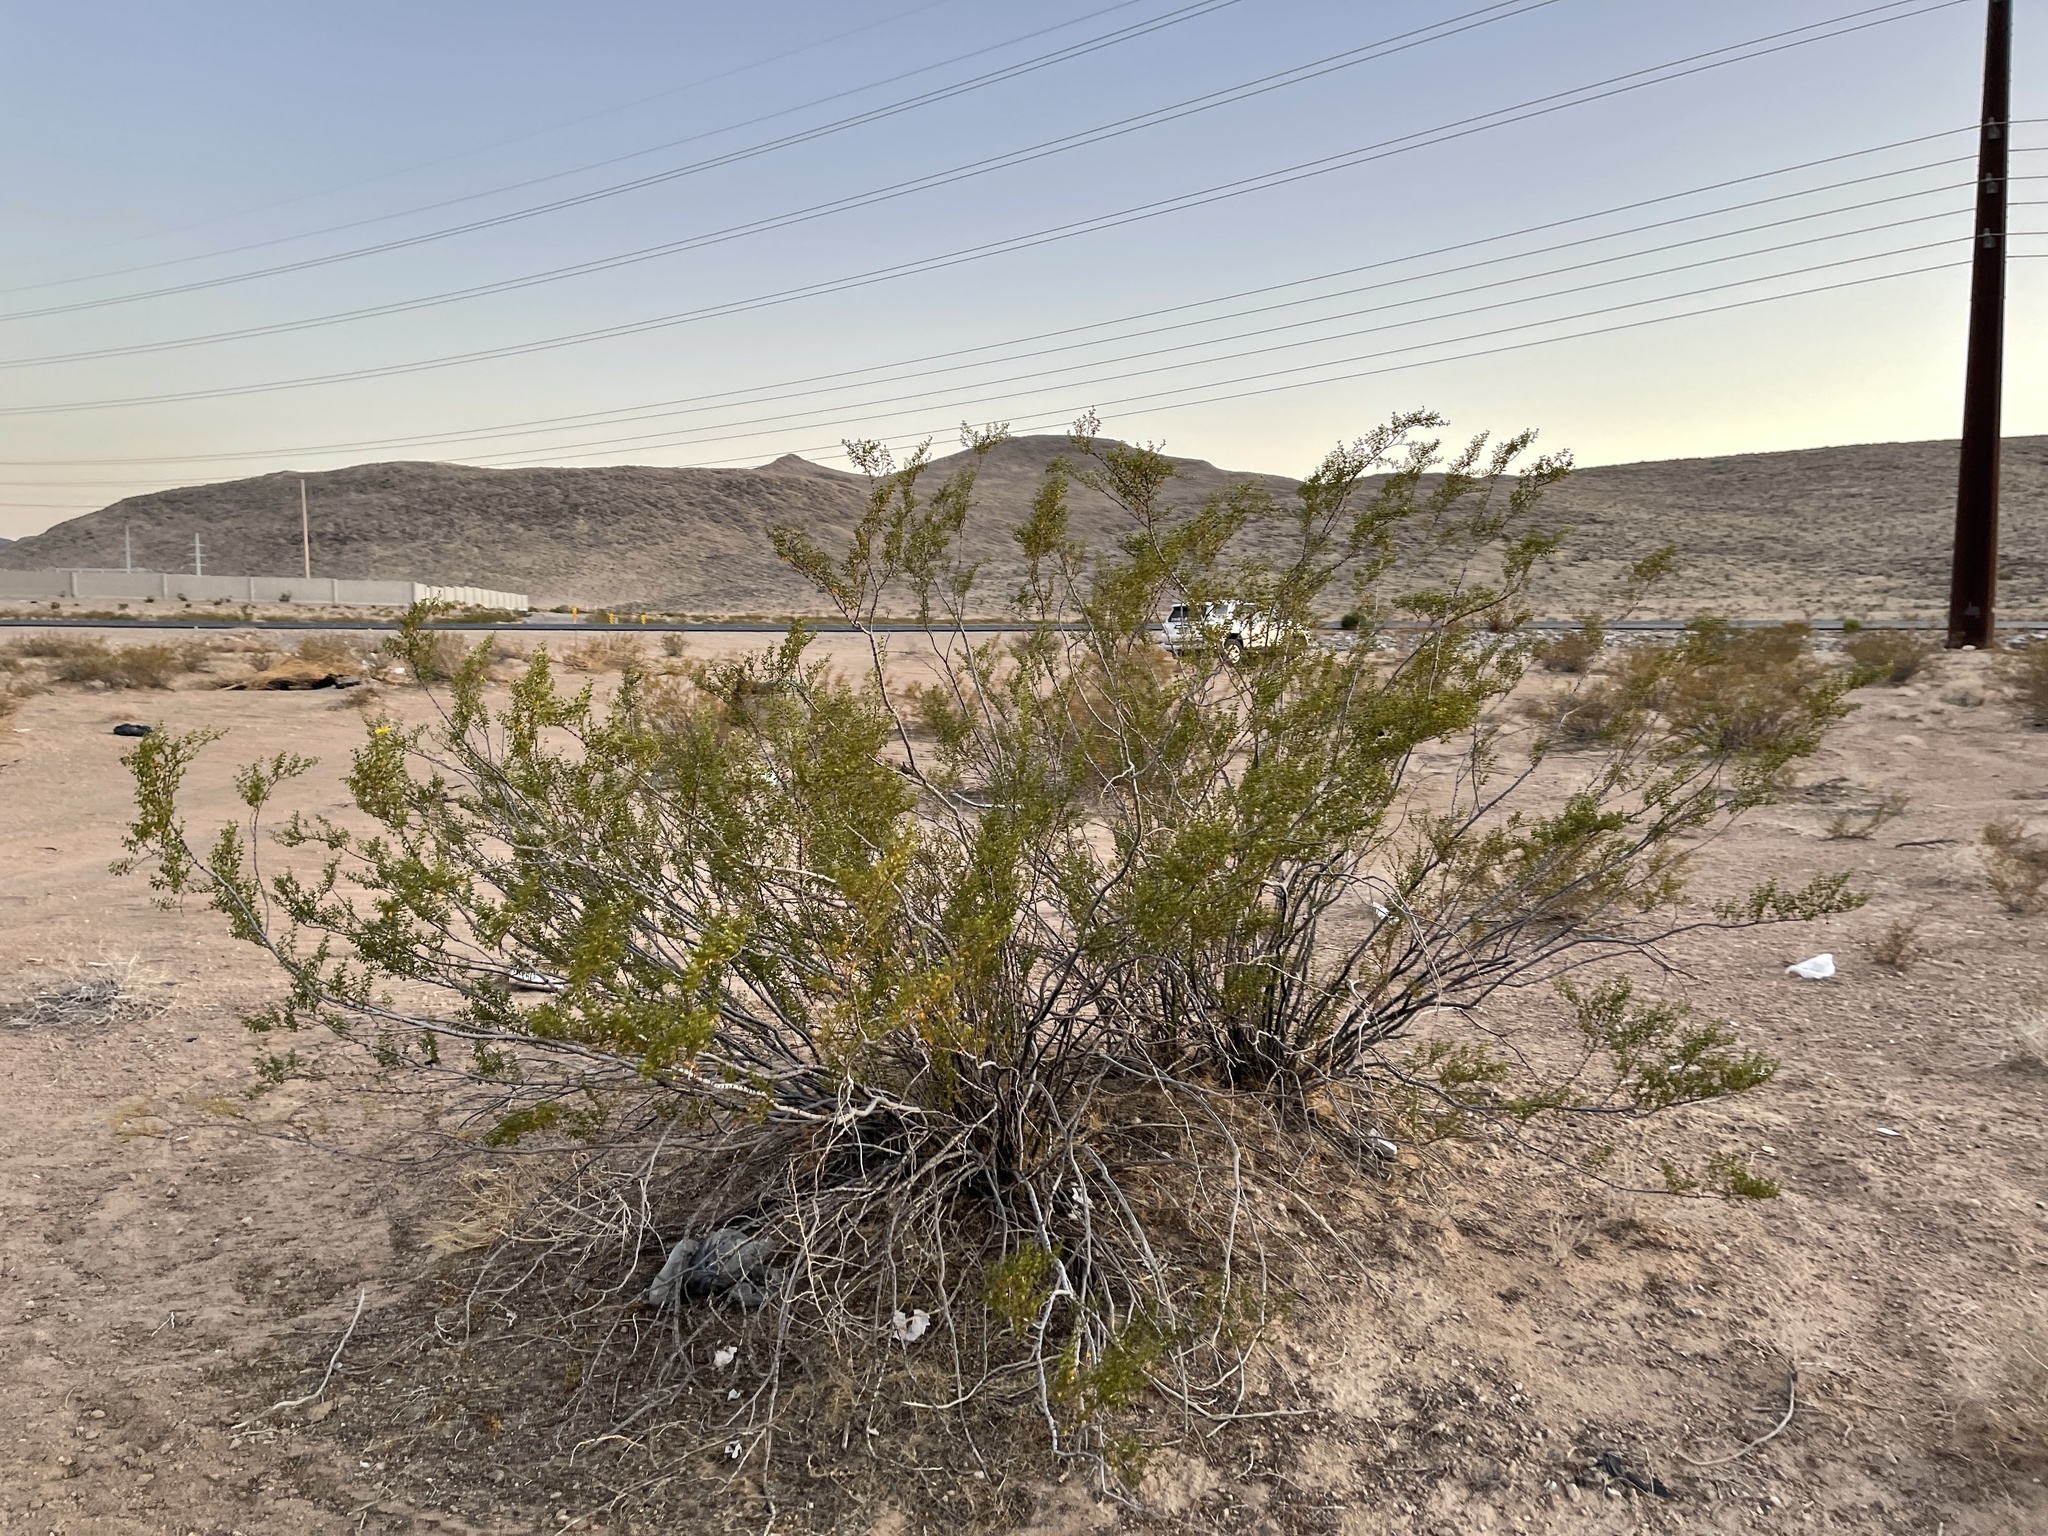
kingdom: Plantae
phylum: Tracheophyta
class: Magnoliopsida
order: Zygophyllales
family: Zygophyllaceae
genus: Larrea
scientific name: Larrea tridentata
